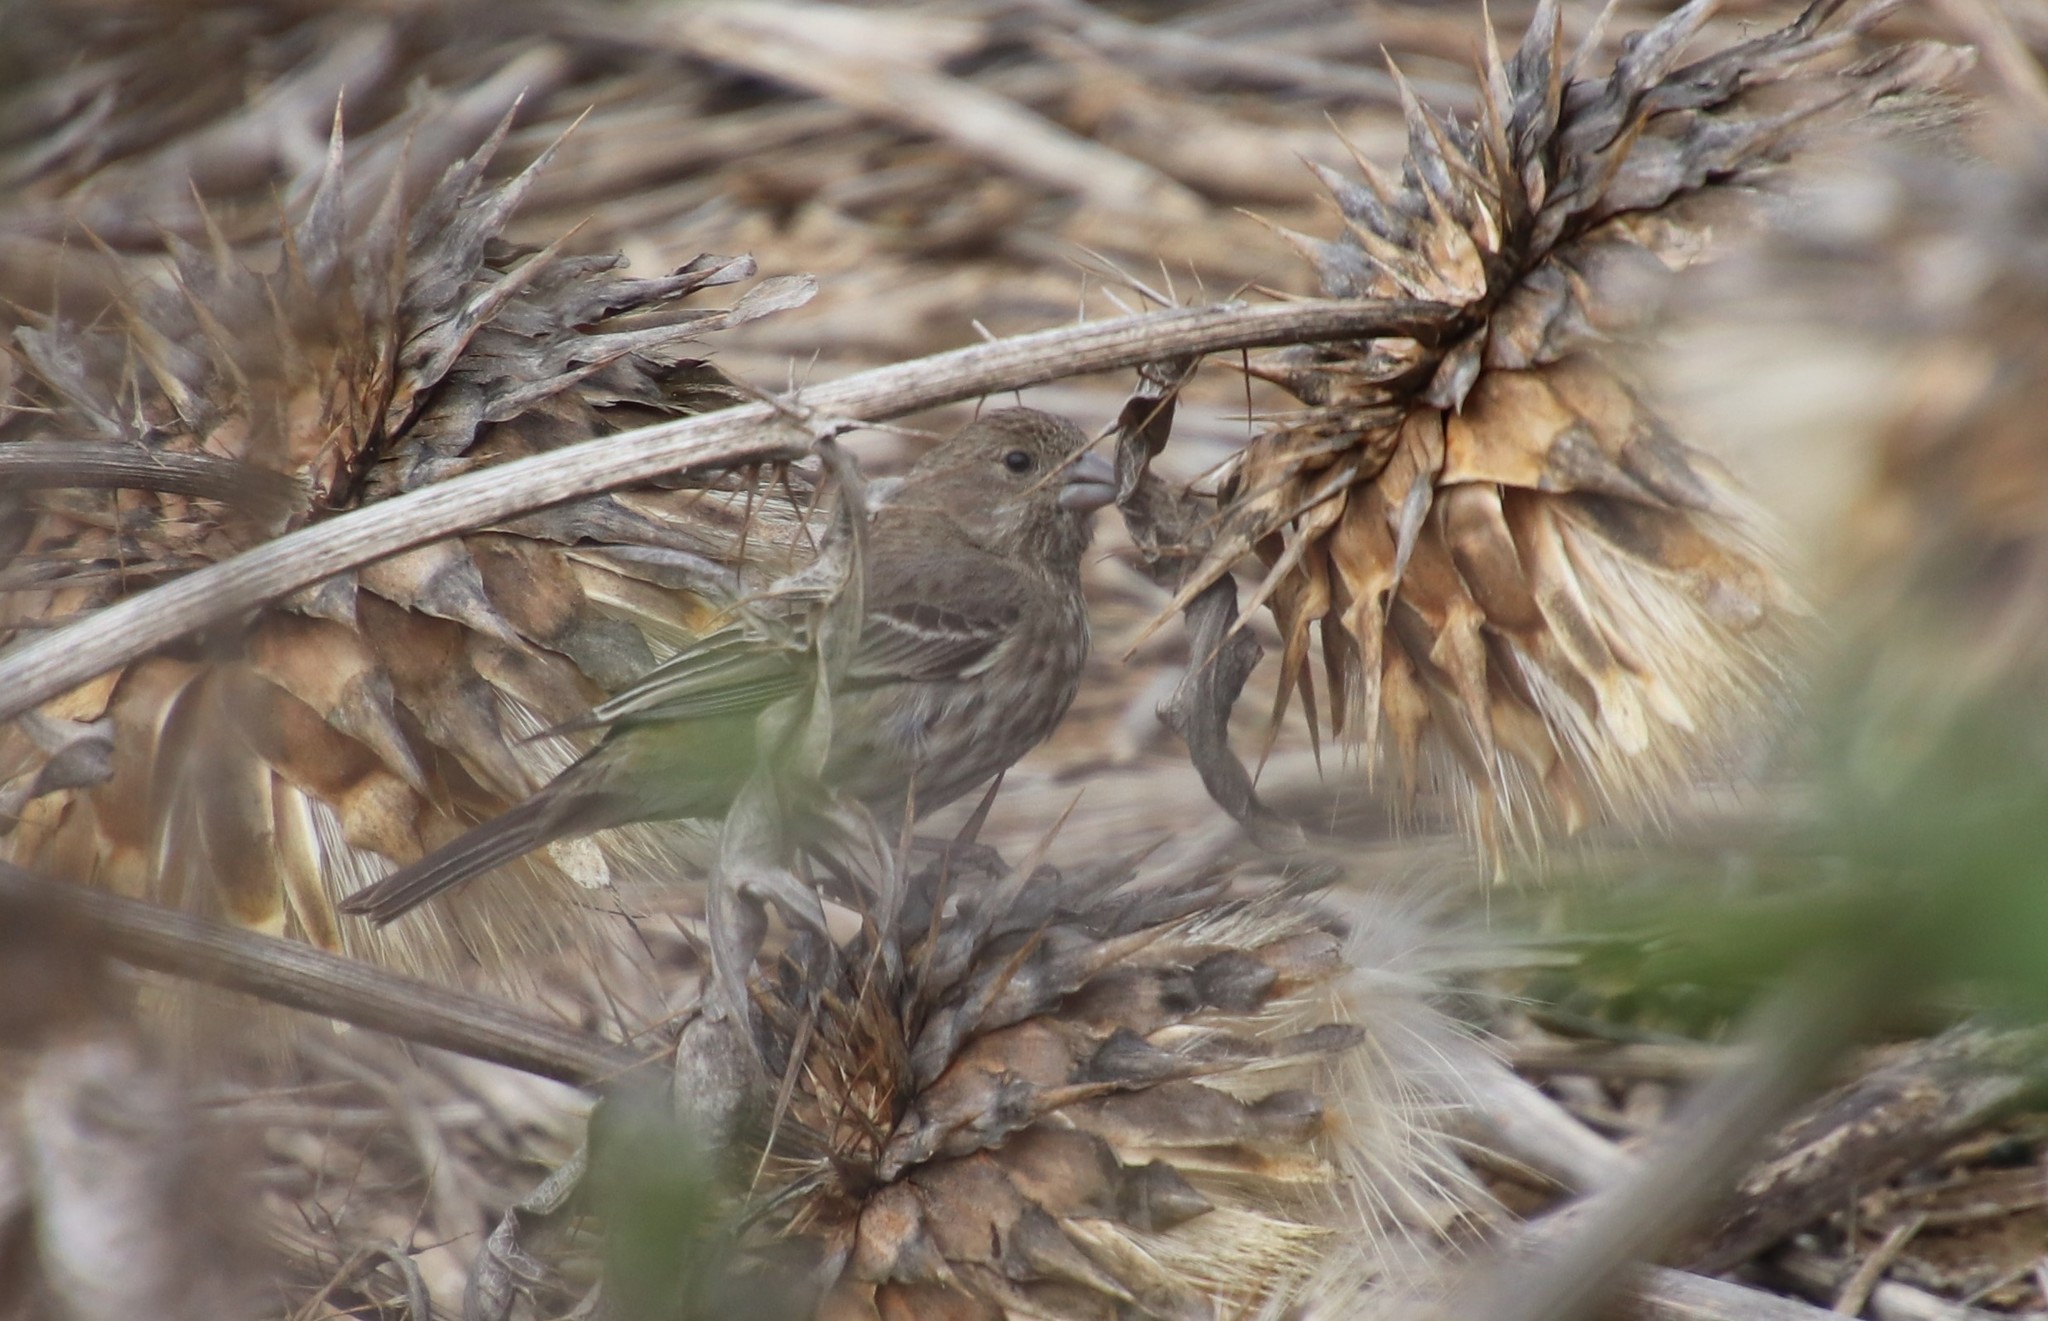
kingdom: Animalia
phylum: Chordata
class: Aves
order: Passeriformes
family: Fringillidae
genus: Haemorhous
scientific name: Haemorhous mexicanus
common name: House finch
